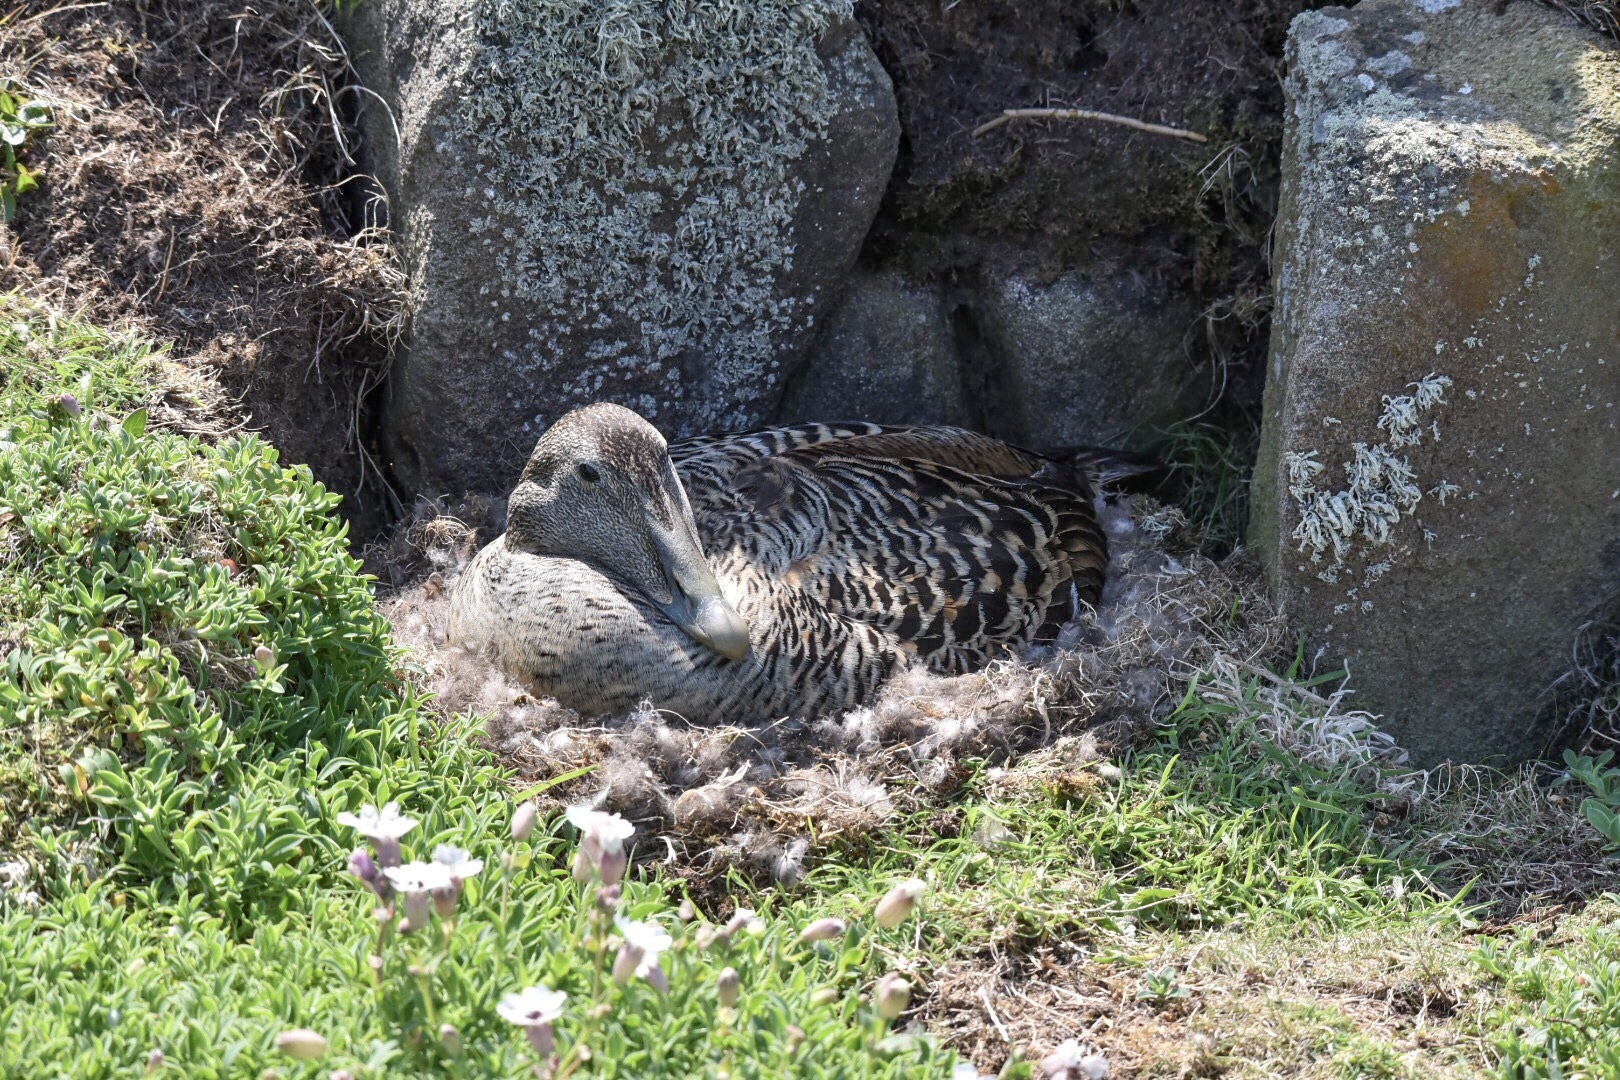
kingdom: Animalia
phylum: Chordata
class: Aves
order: Anseriformes
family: Anatidae
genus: Somateria
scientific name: Somateria mollissima
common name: Common eider
